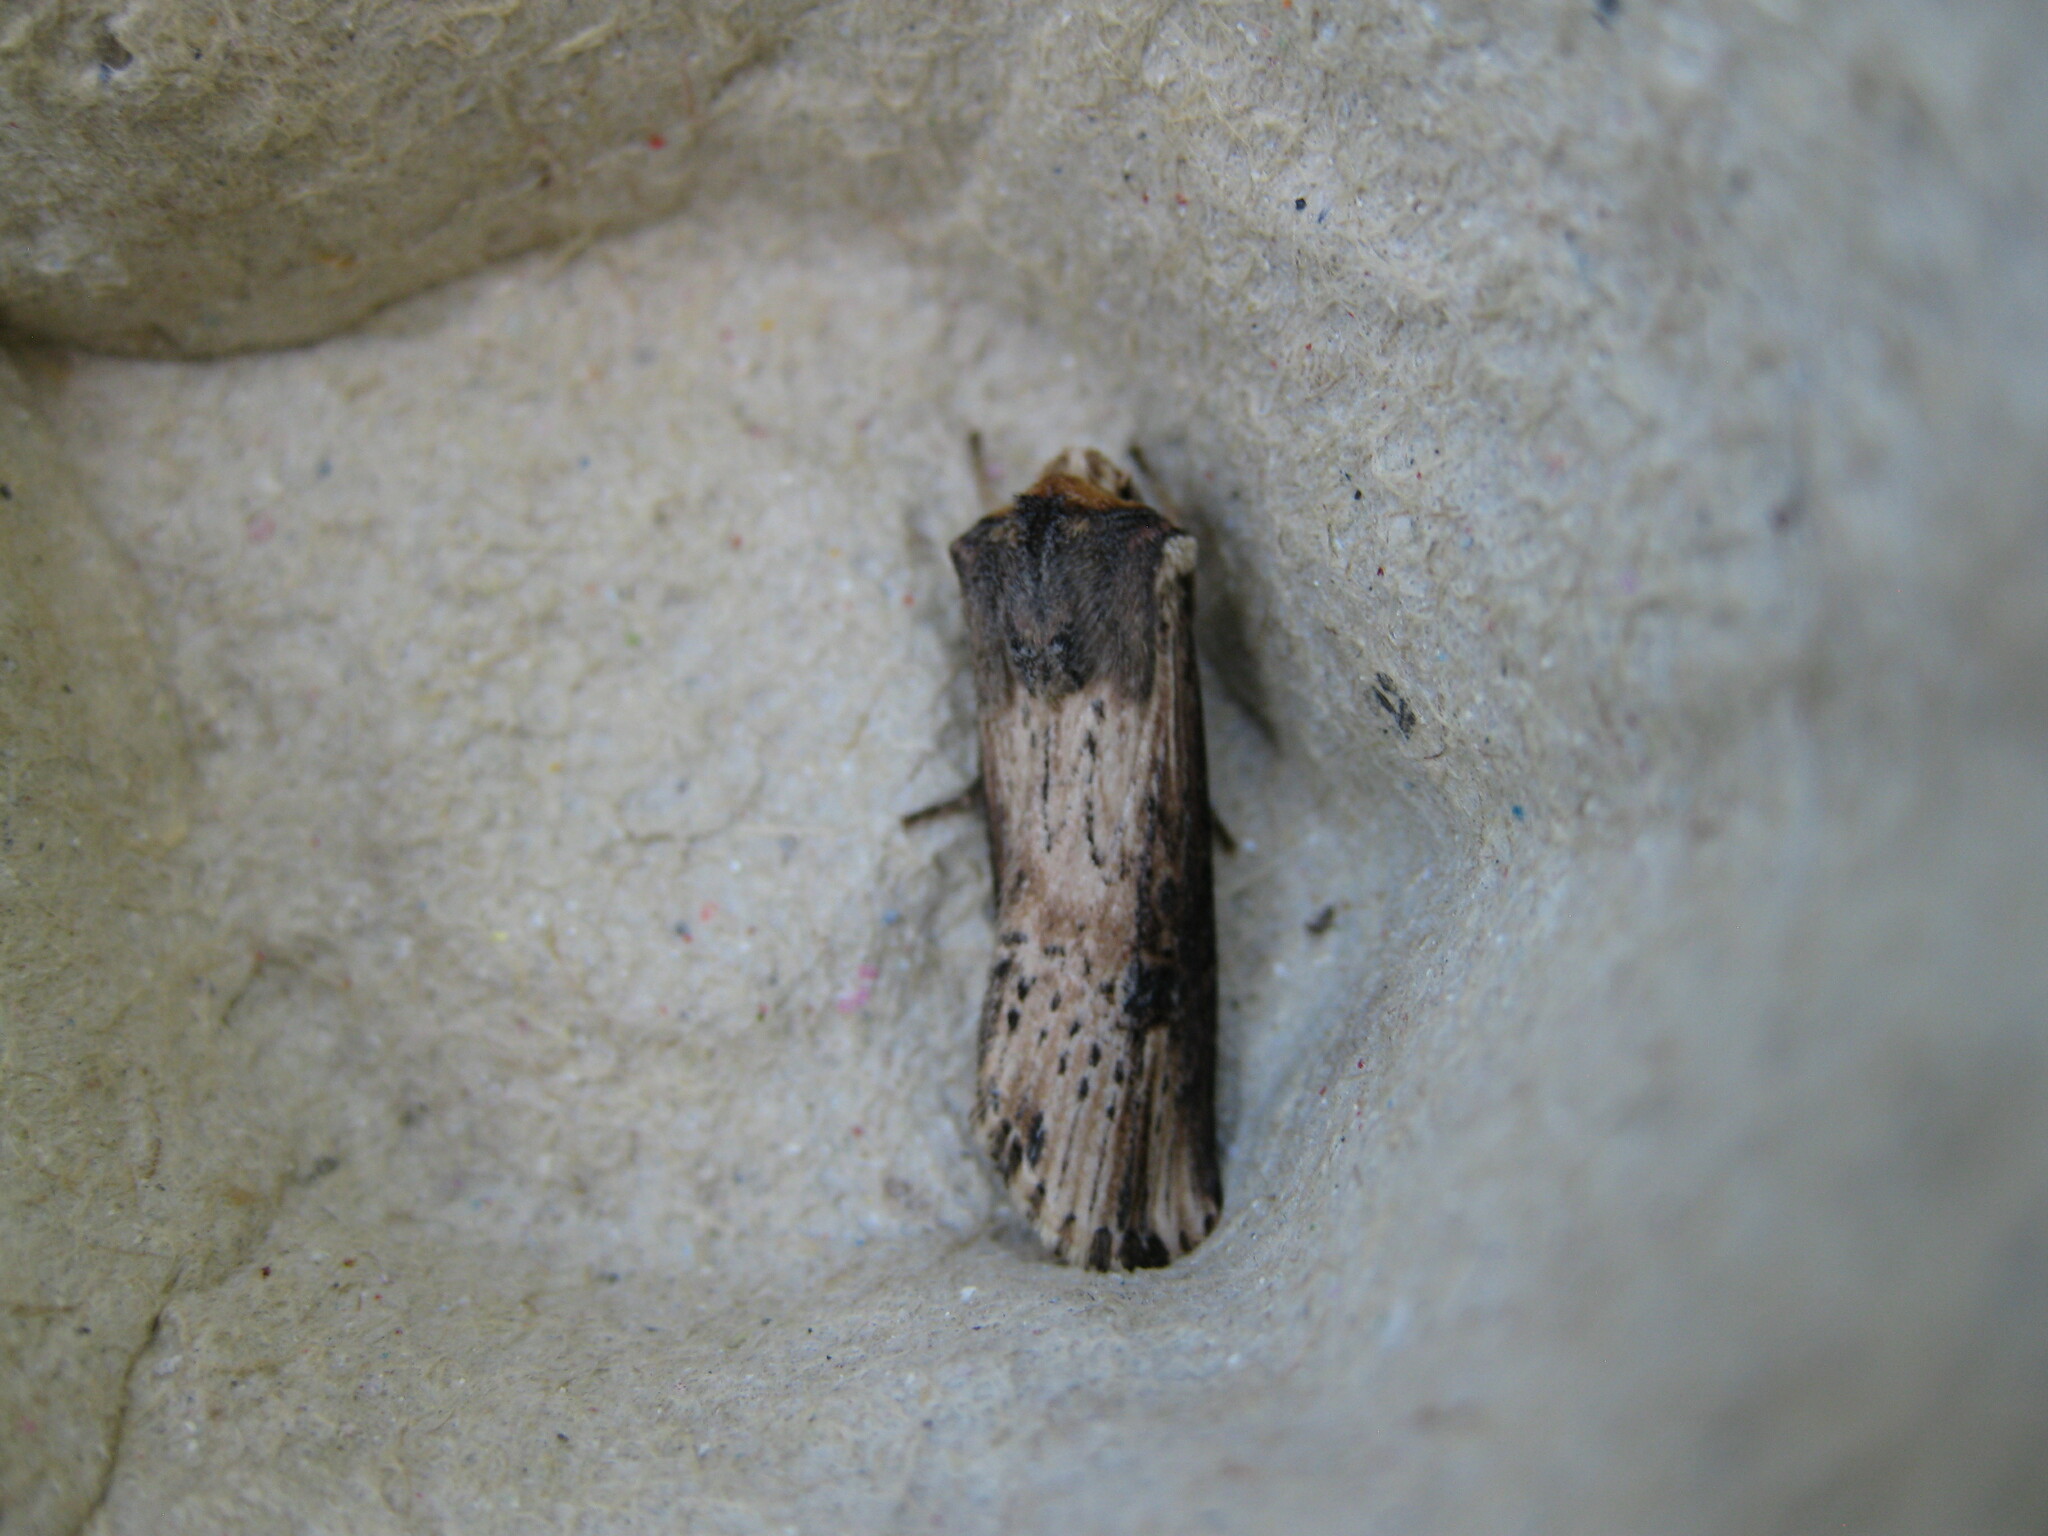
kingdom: Animalia
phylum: Arthropoda
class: Insecta
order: Lepidoptera
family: Noctuidae
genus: Axylia
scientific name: Axylia putris
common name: Flame
